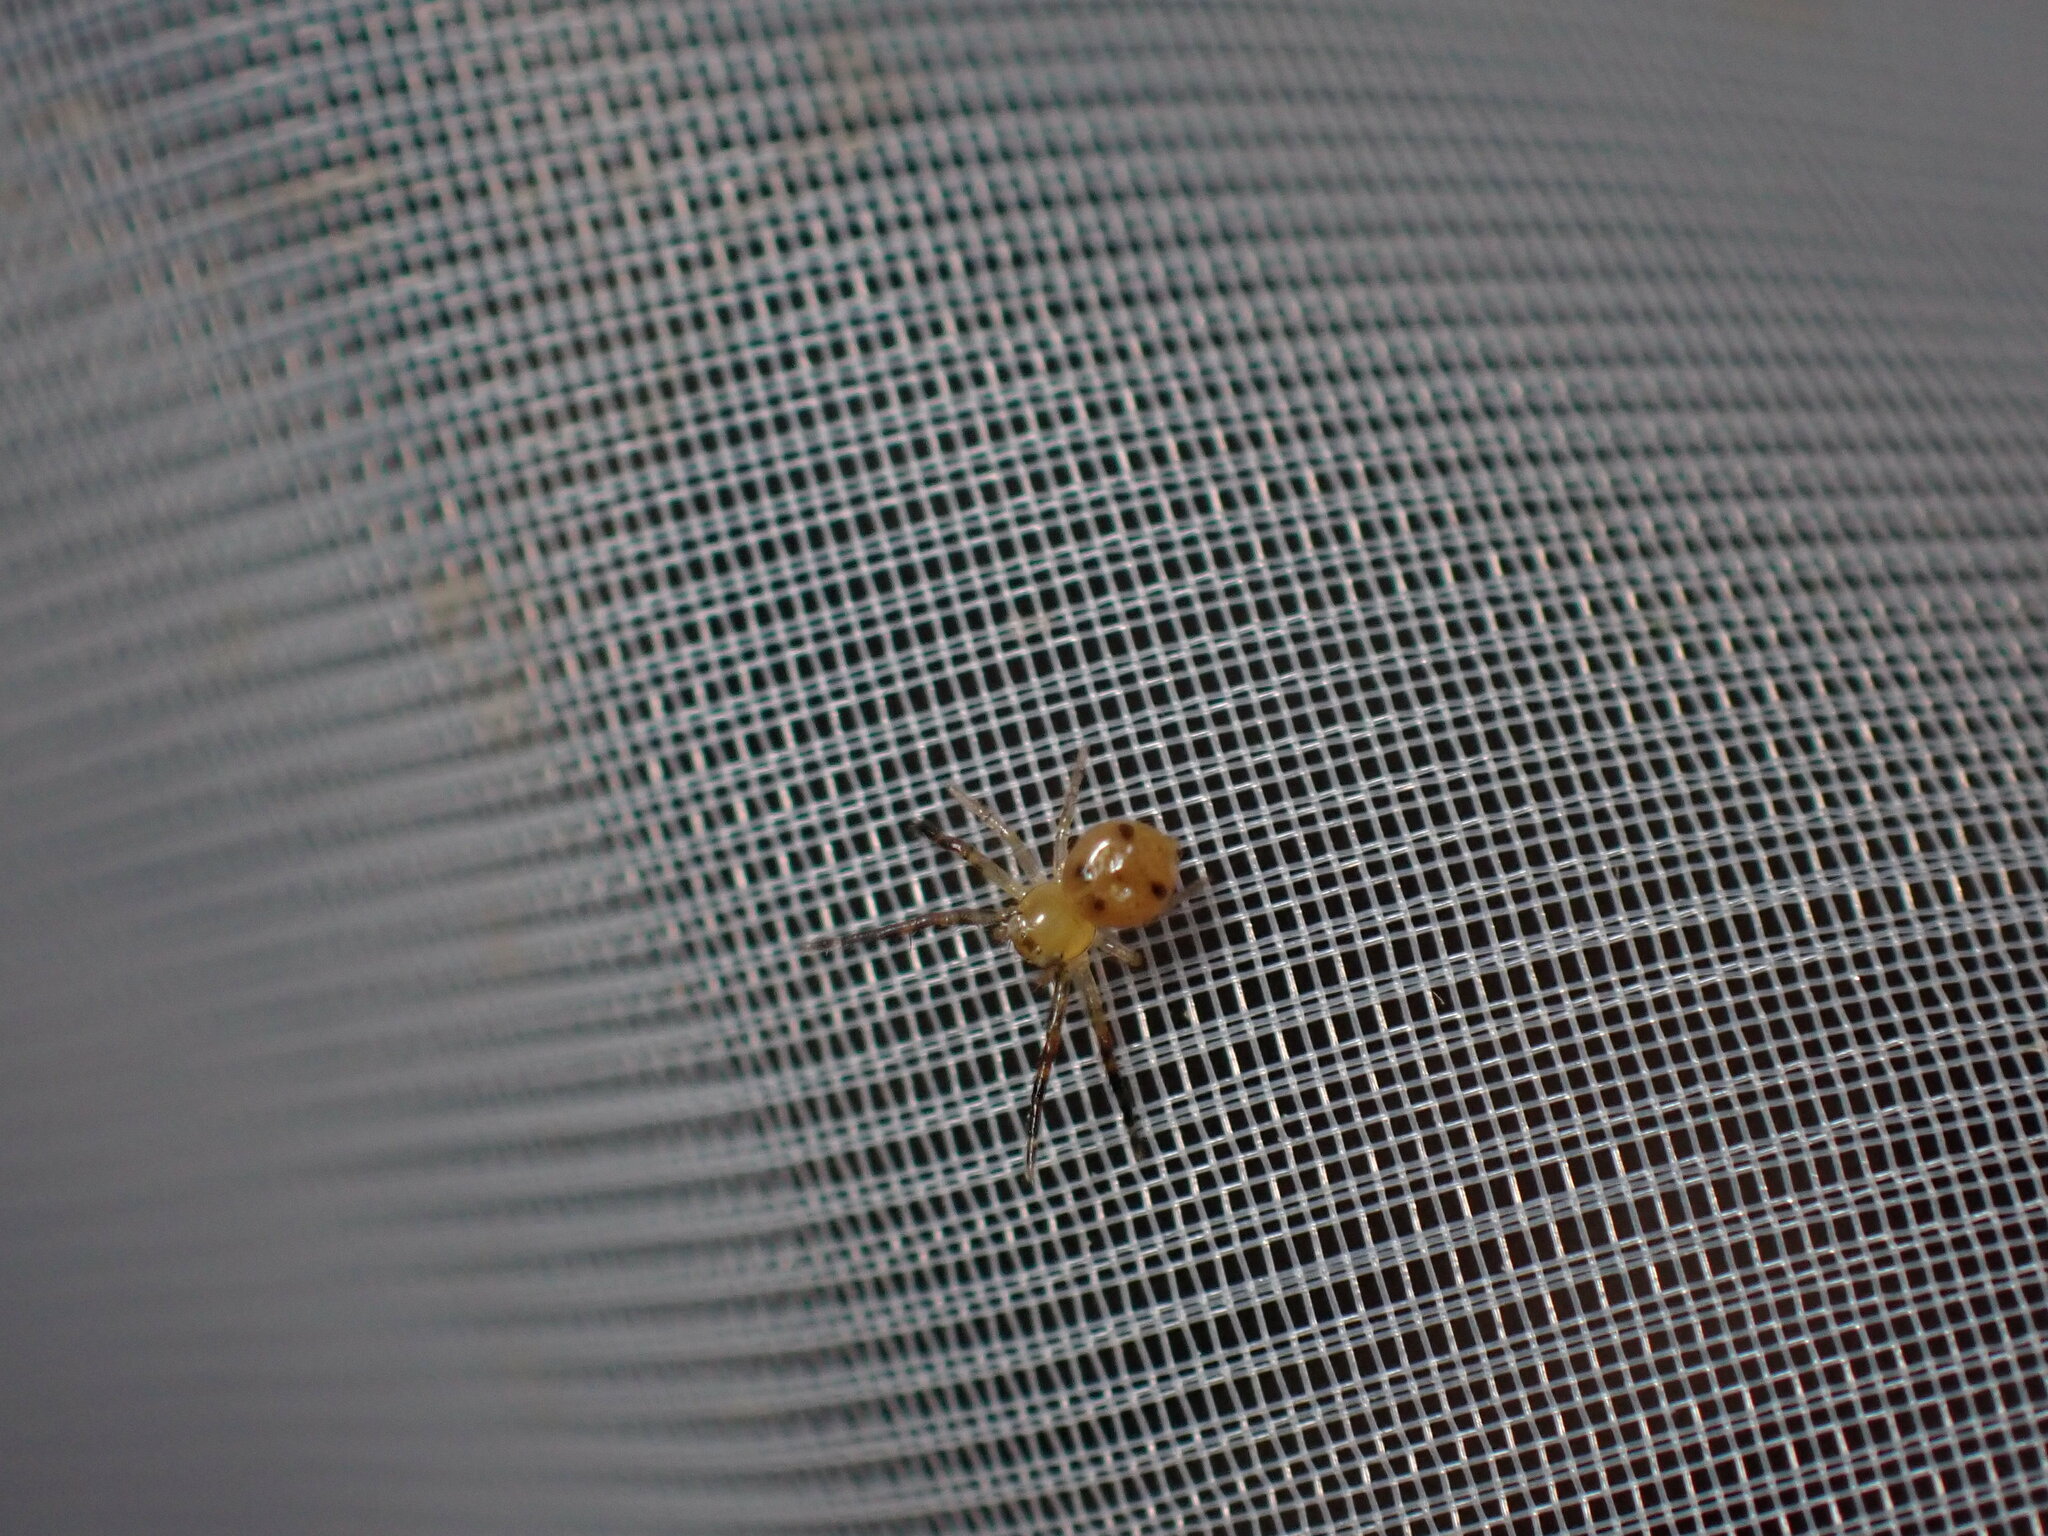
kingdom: Animalia
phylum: Arthropoda
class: Arachnida
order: Araneae
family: Thomisidae
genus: Synema
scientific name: Synema globosum
